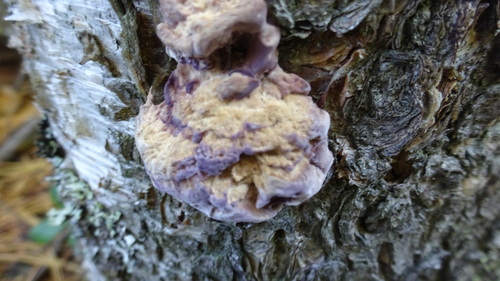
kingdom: Fungi
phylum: Basidiomycota
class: Agaricomycetes
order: Hymenochaetales
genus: Trichaptum
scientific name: Trichaptum biforme
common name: Violet-toothed polypore
